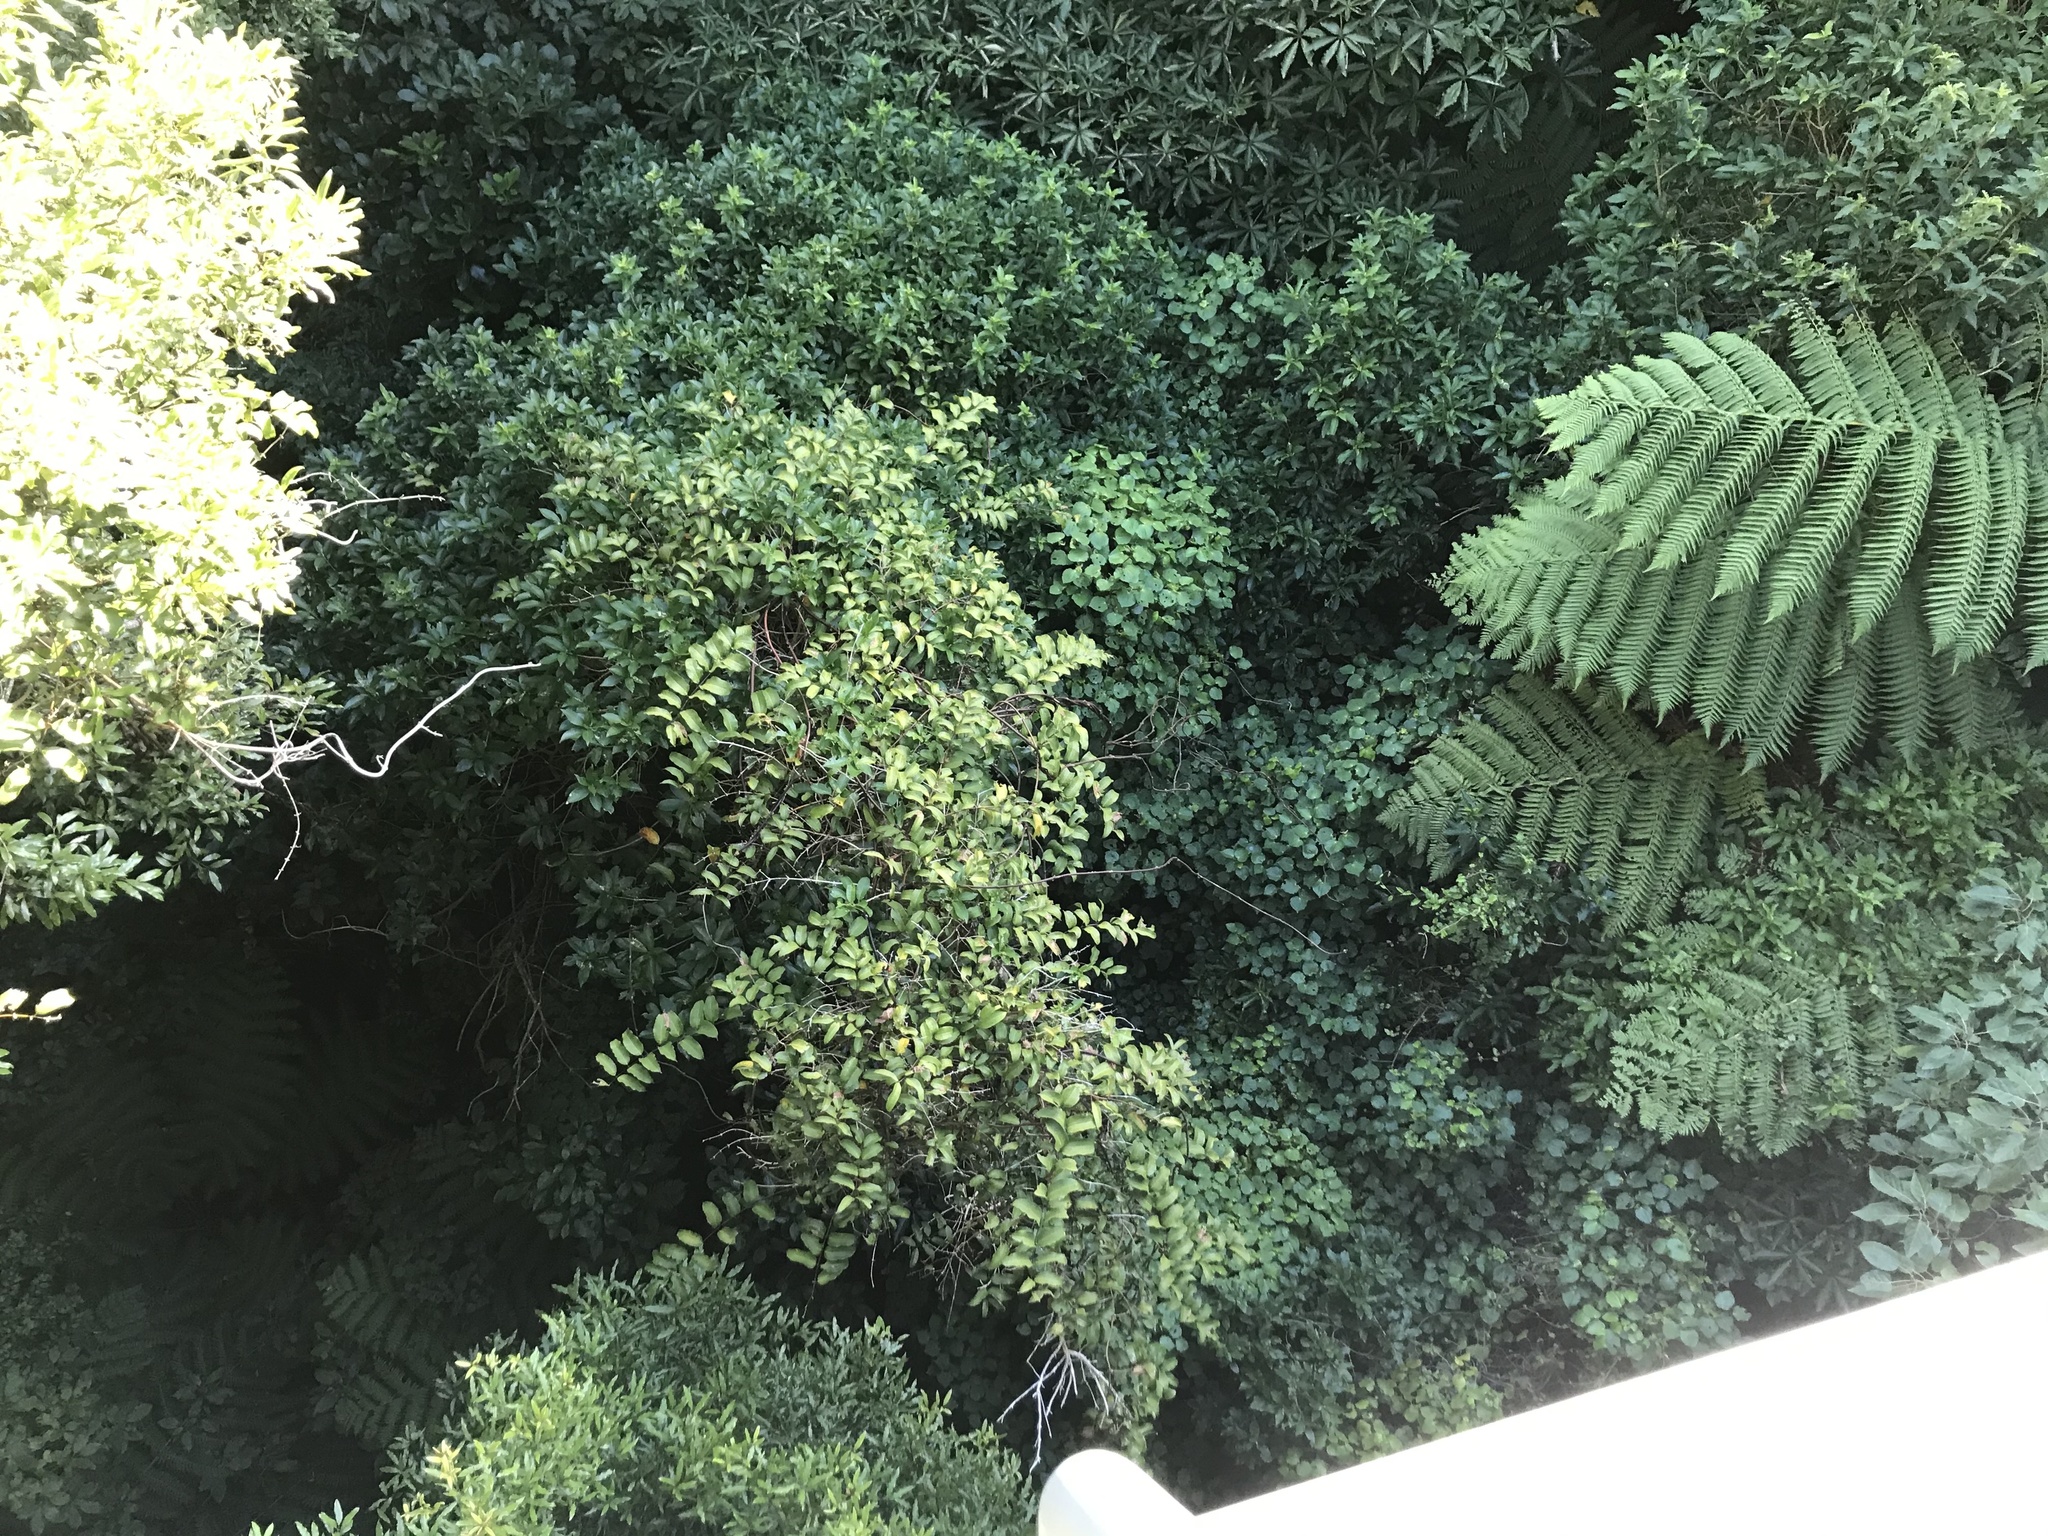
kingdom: Plantae
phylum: Tracheophyta
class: Liliopsida
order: Liliales
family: Ripogonaceae
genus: Ripogonum
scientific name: Ripogonum scandens
